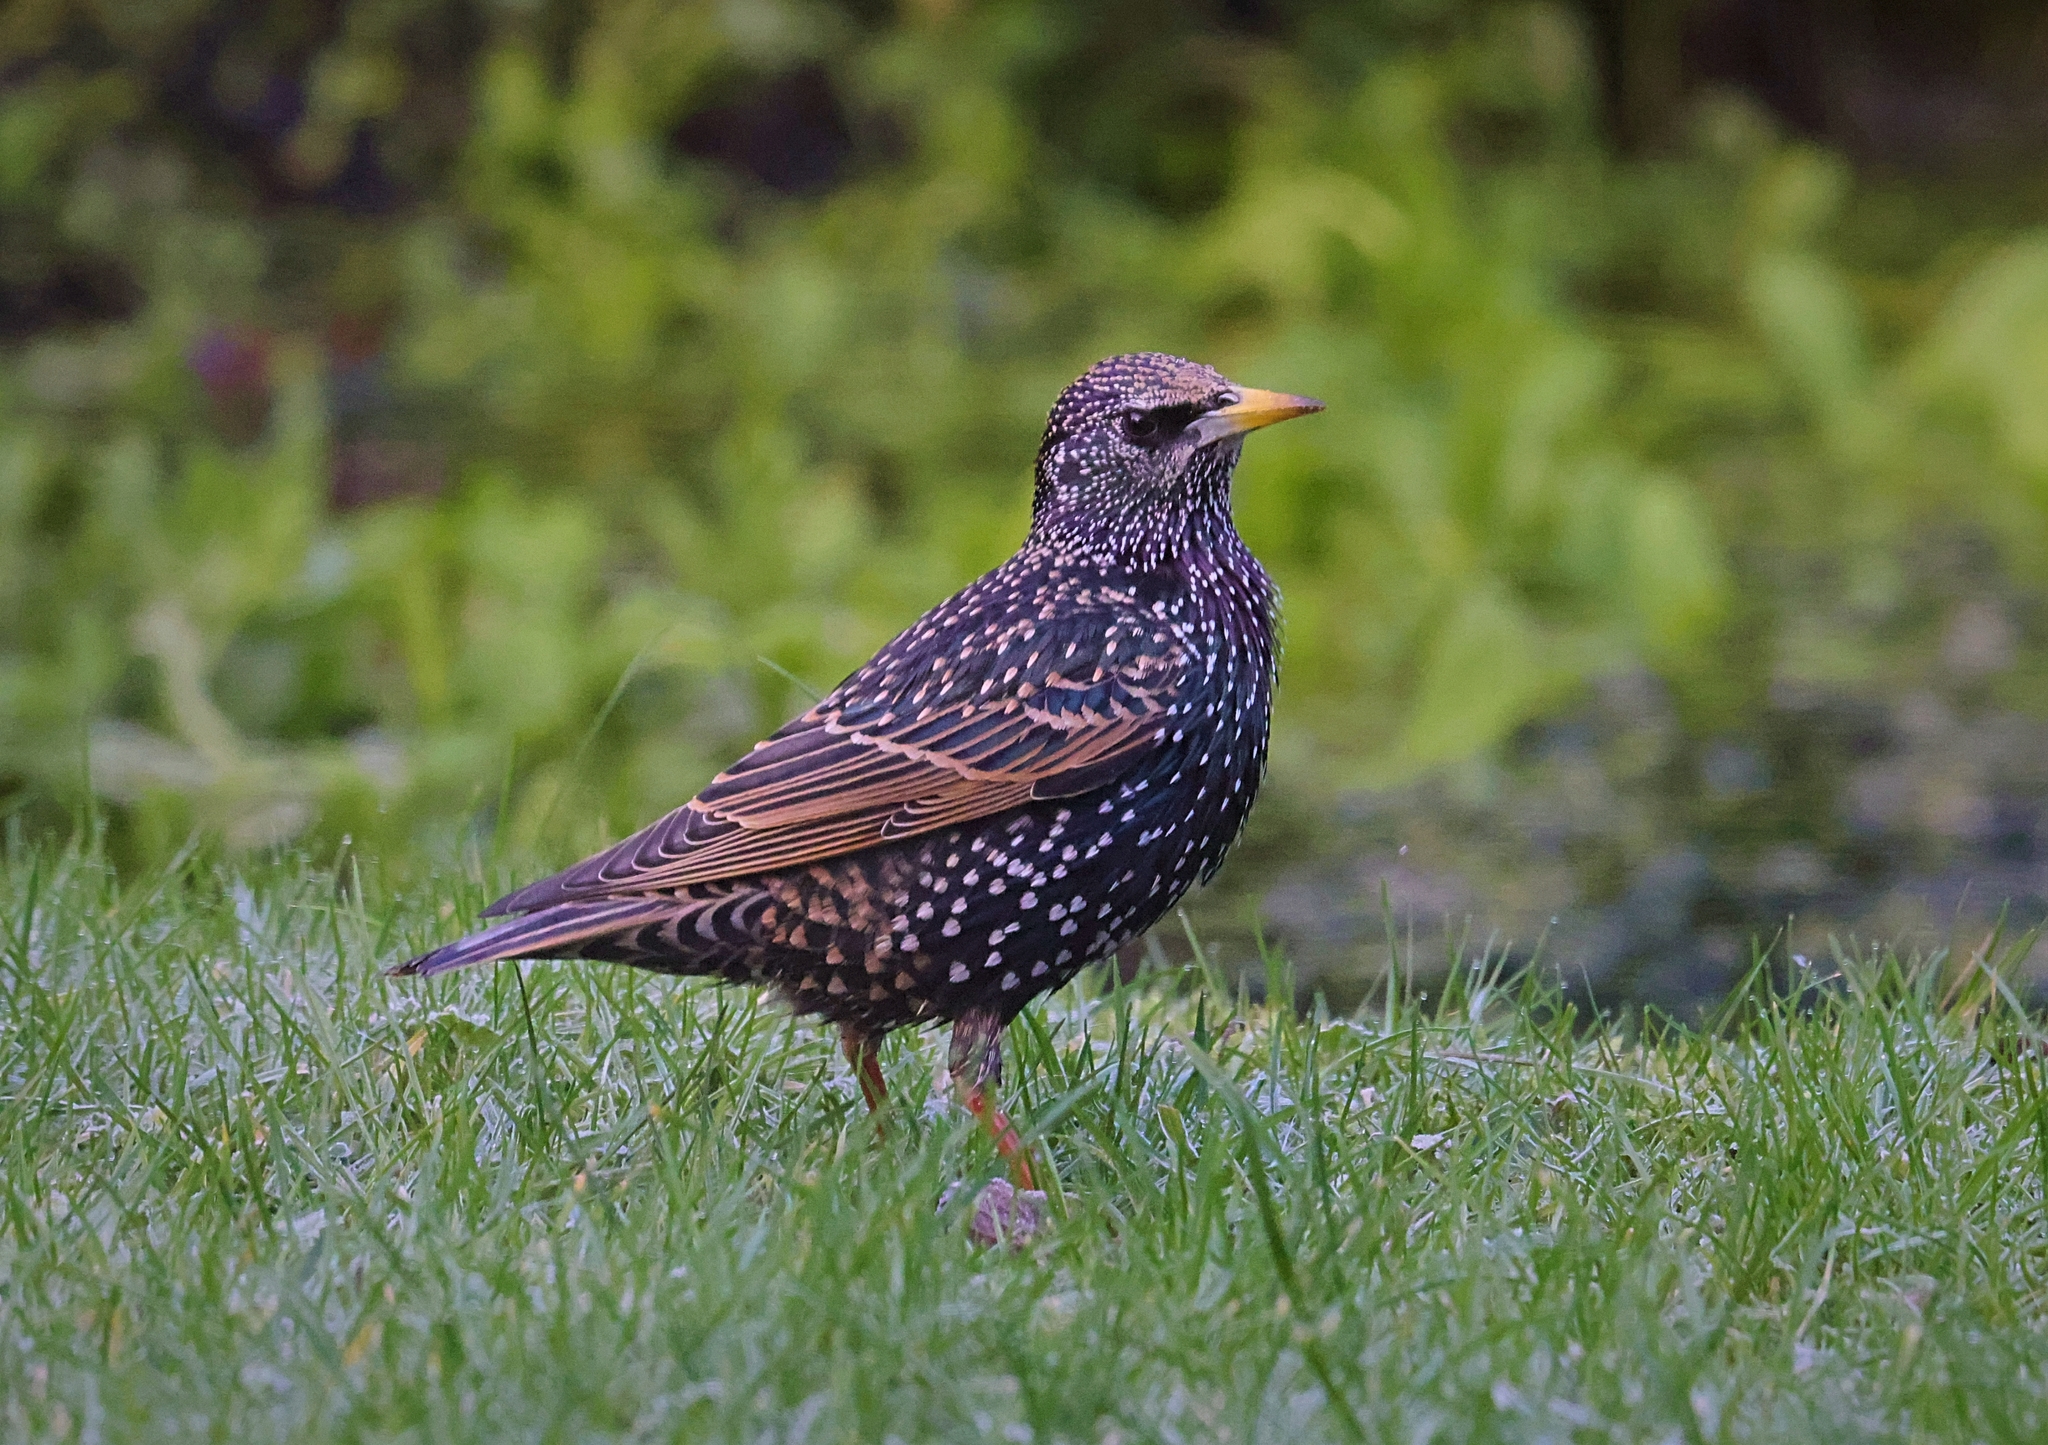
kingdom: Animalia
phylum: Chordata
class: Aves
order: Passeriformes
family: Sturnidae
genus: Sturnus
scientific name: Sturnus vulgaris
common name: Common starling
